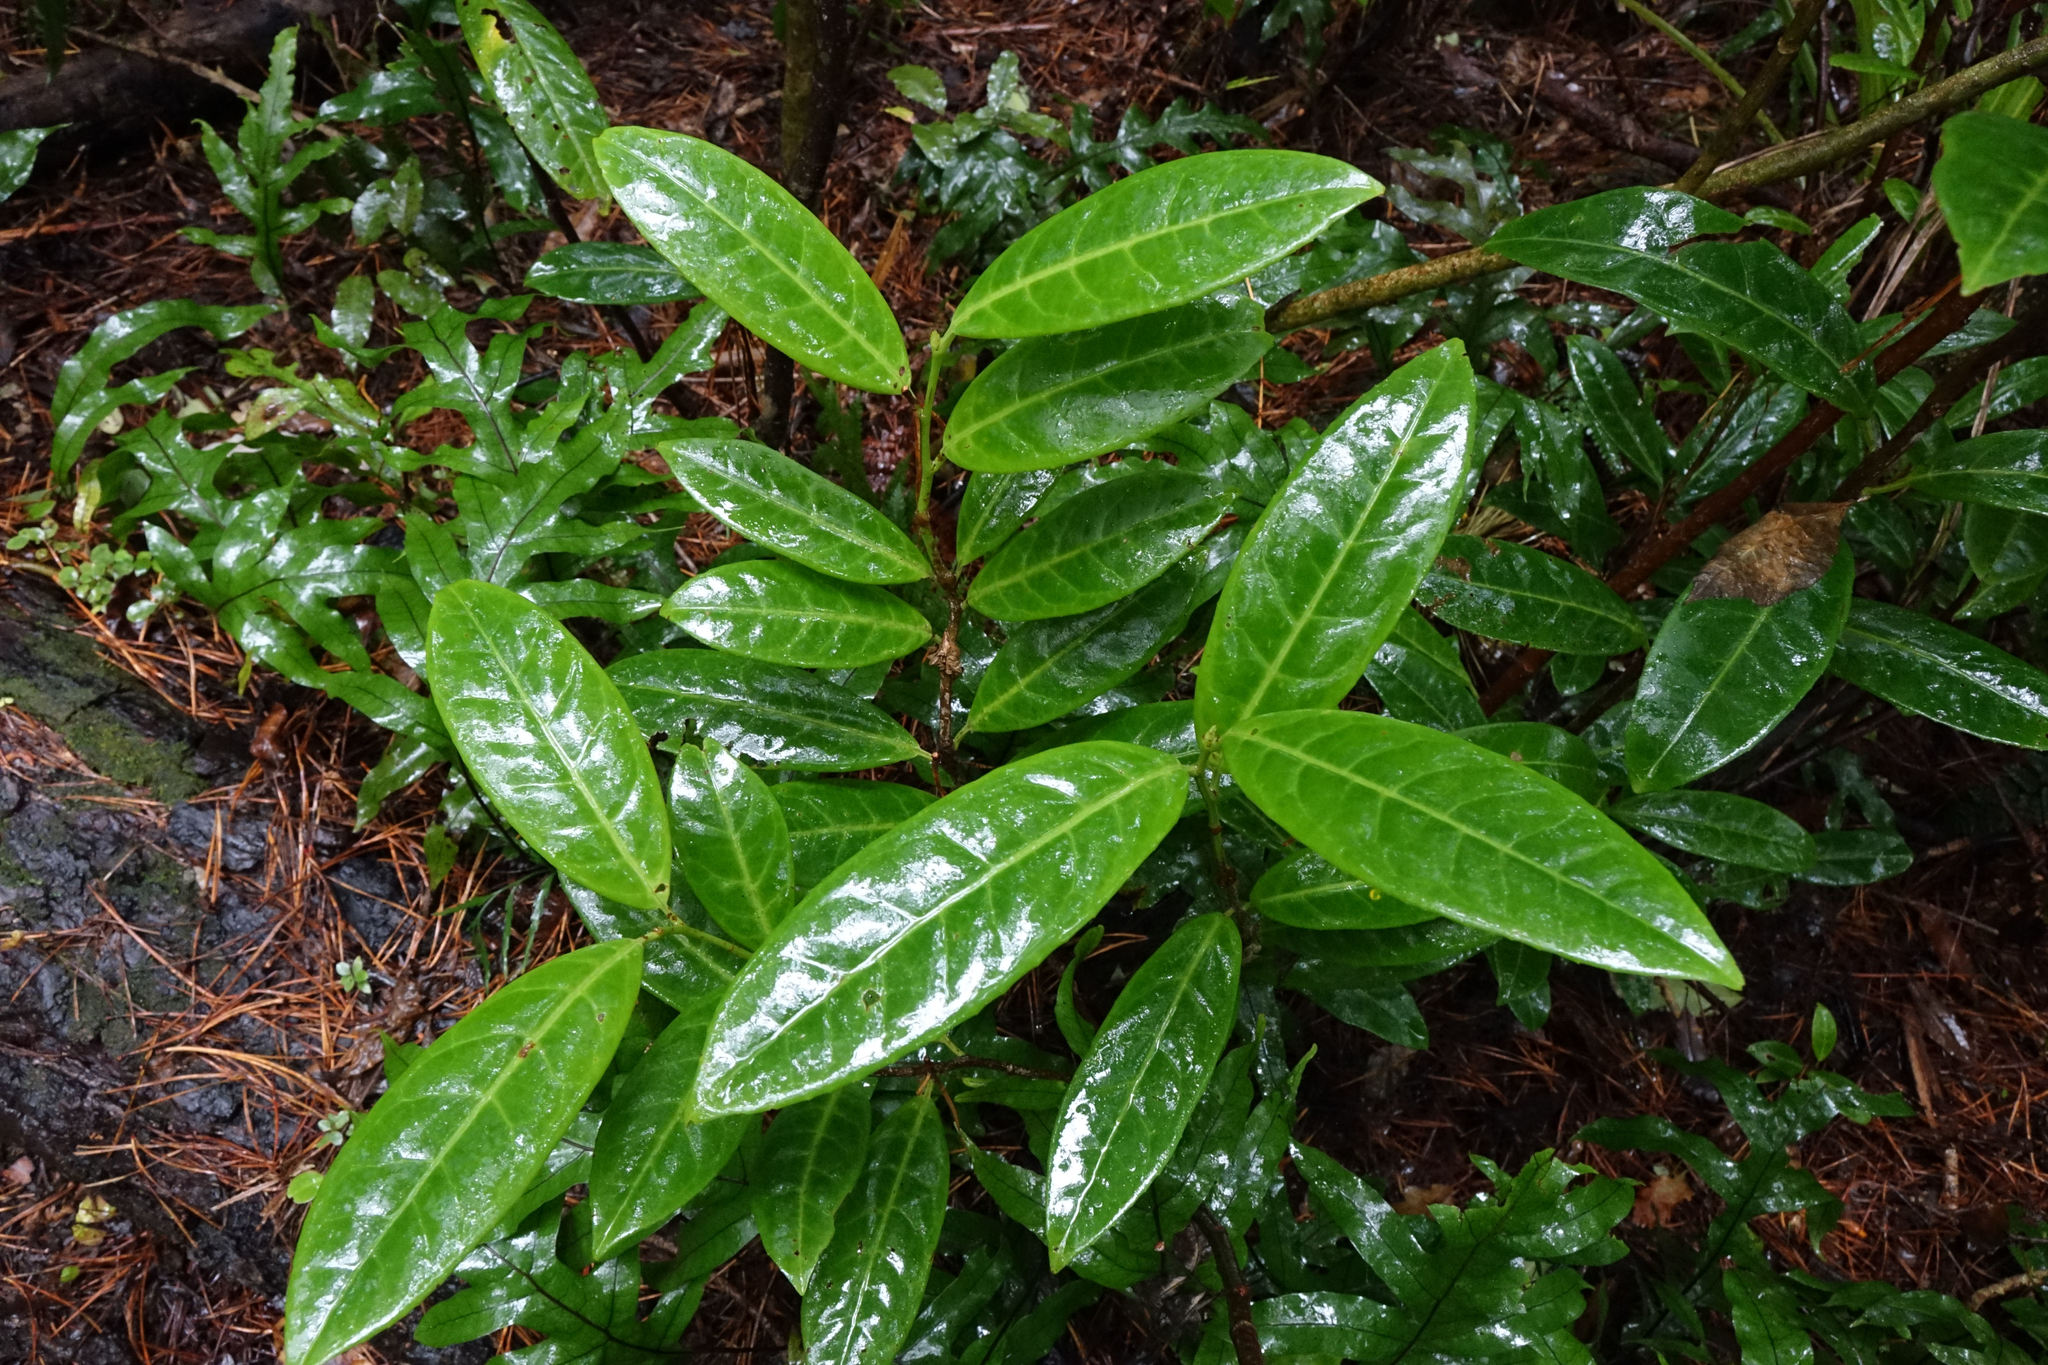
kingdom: Plantae
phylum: Tracheophyta
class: Magnoliopsida
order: Rosales
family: Rosaceae
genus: Prunus
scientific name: Prunus laurocerasus
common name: Cherry laurel
